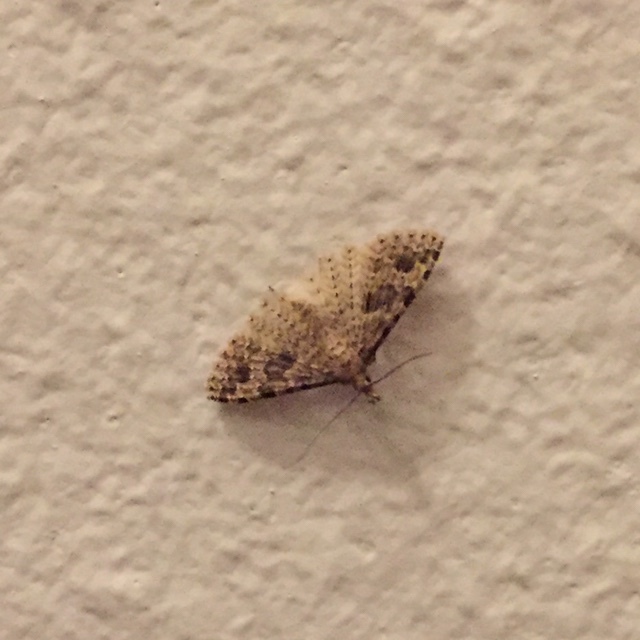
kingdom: Animalia
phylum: Arthropoda
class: Insecta
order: Lepidoptera
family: Alucitidae
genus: Alucita
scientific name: Alucita hexadactyla
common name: Twenty-plume moth
